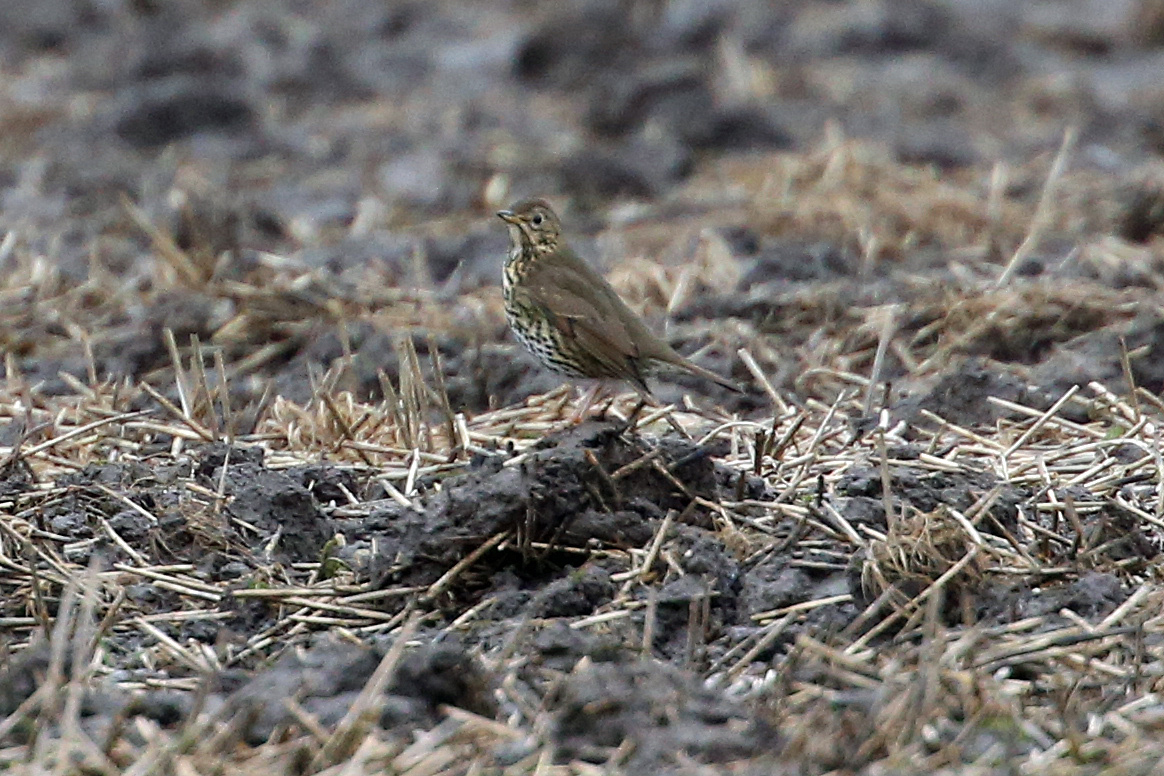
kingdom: Animalia
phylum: Chordata
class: Aves
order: Passeriformes
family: Turdidae
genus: Turdus
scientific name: Turdus philomelos
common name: Song thrush
